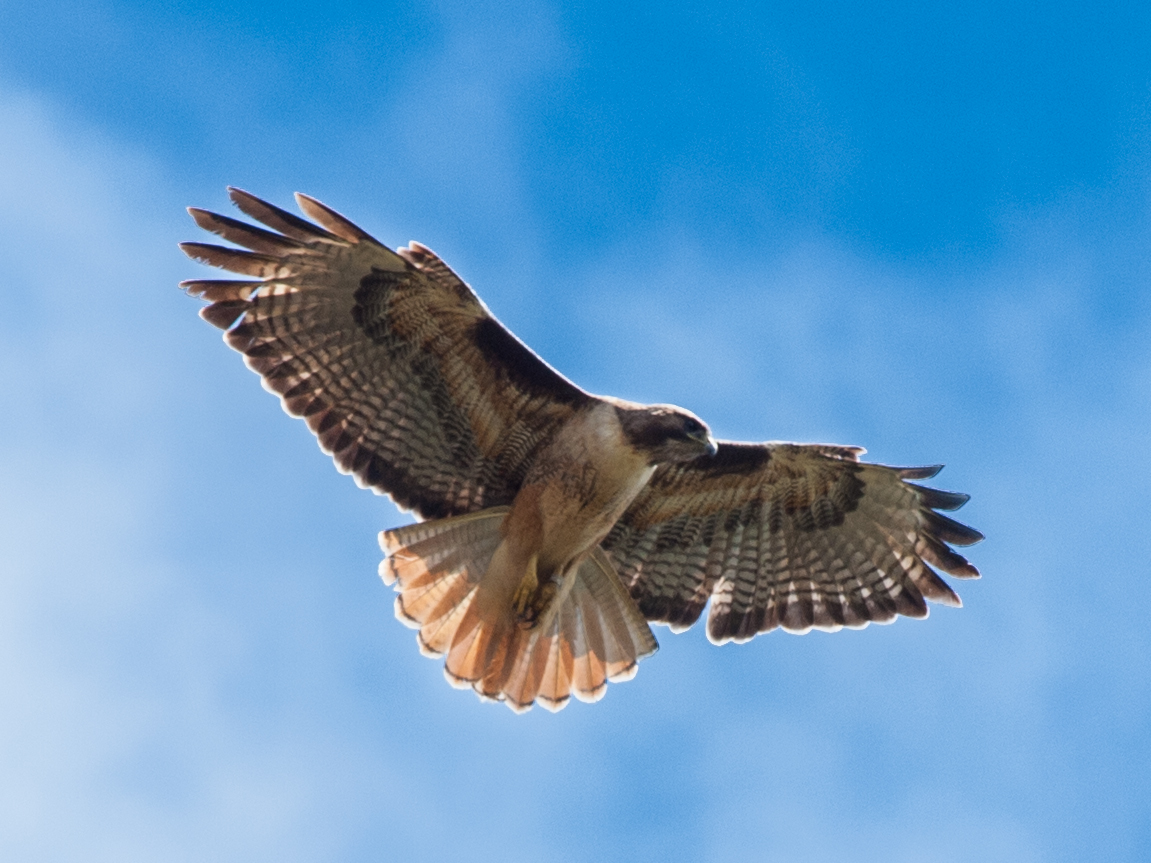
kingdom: Animalia
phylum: Chordata
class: Aves
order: Accipitriformes
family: Accipitridae
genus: Buteo
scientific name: Buteo jamaicensis
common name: Red-tailed hawk
